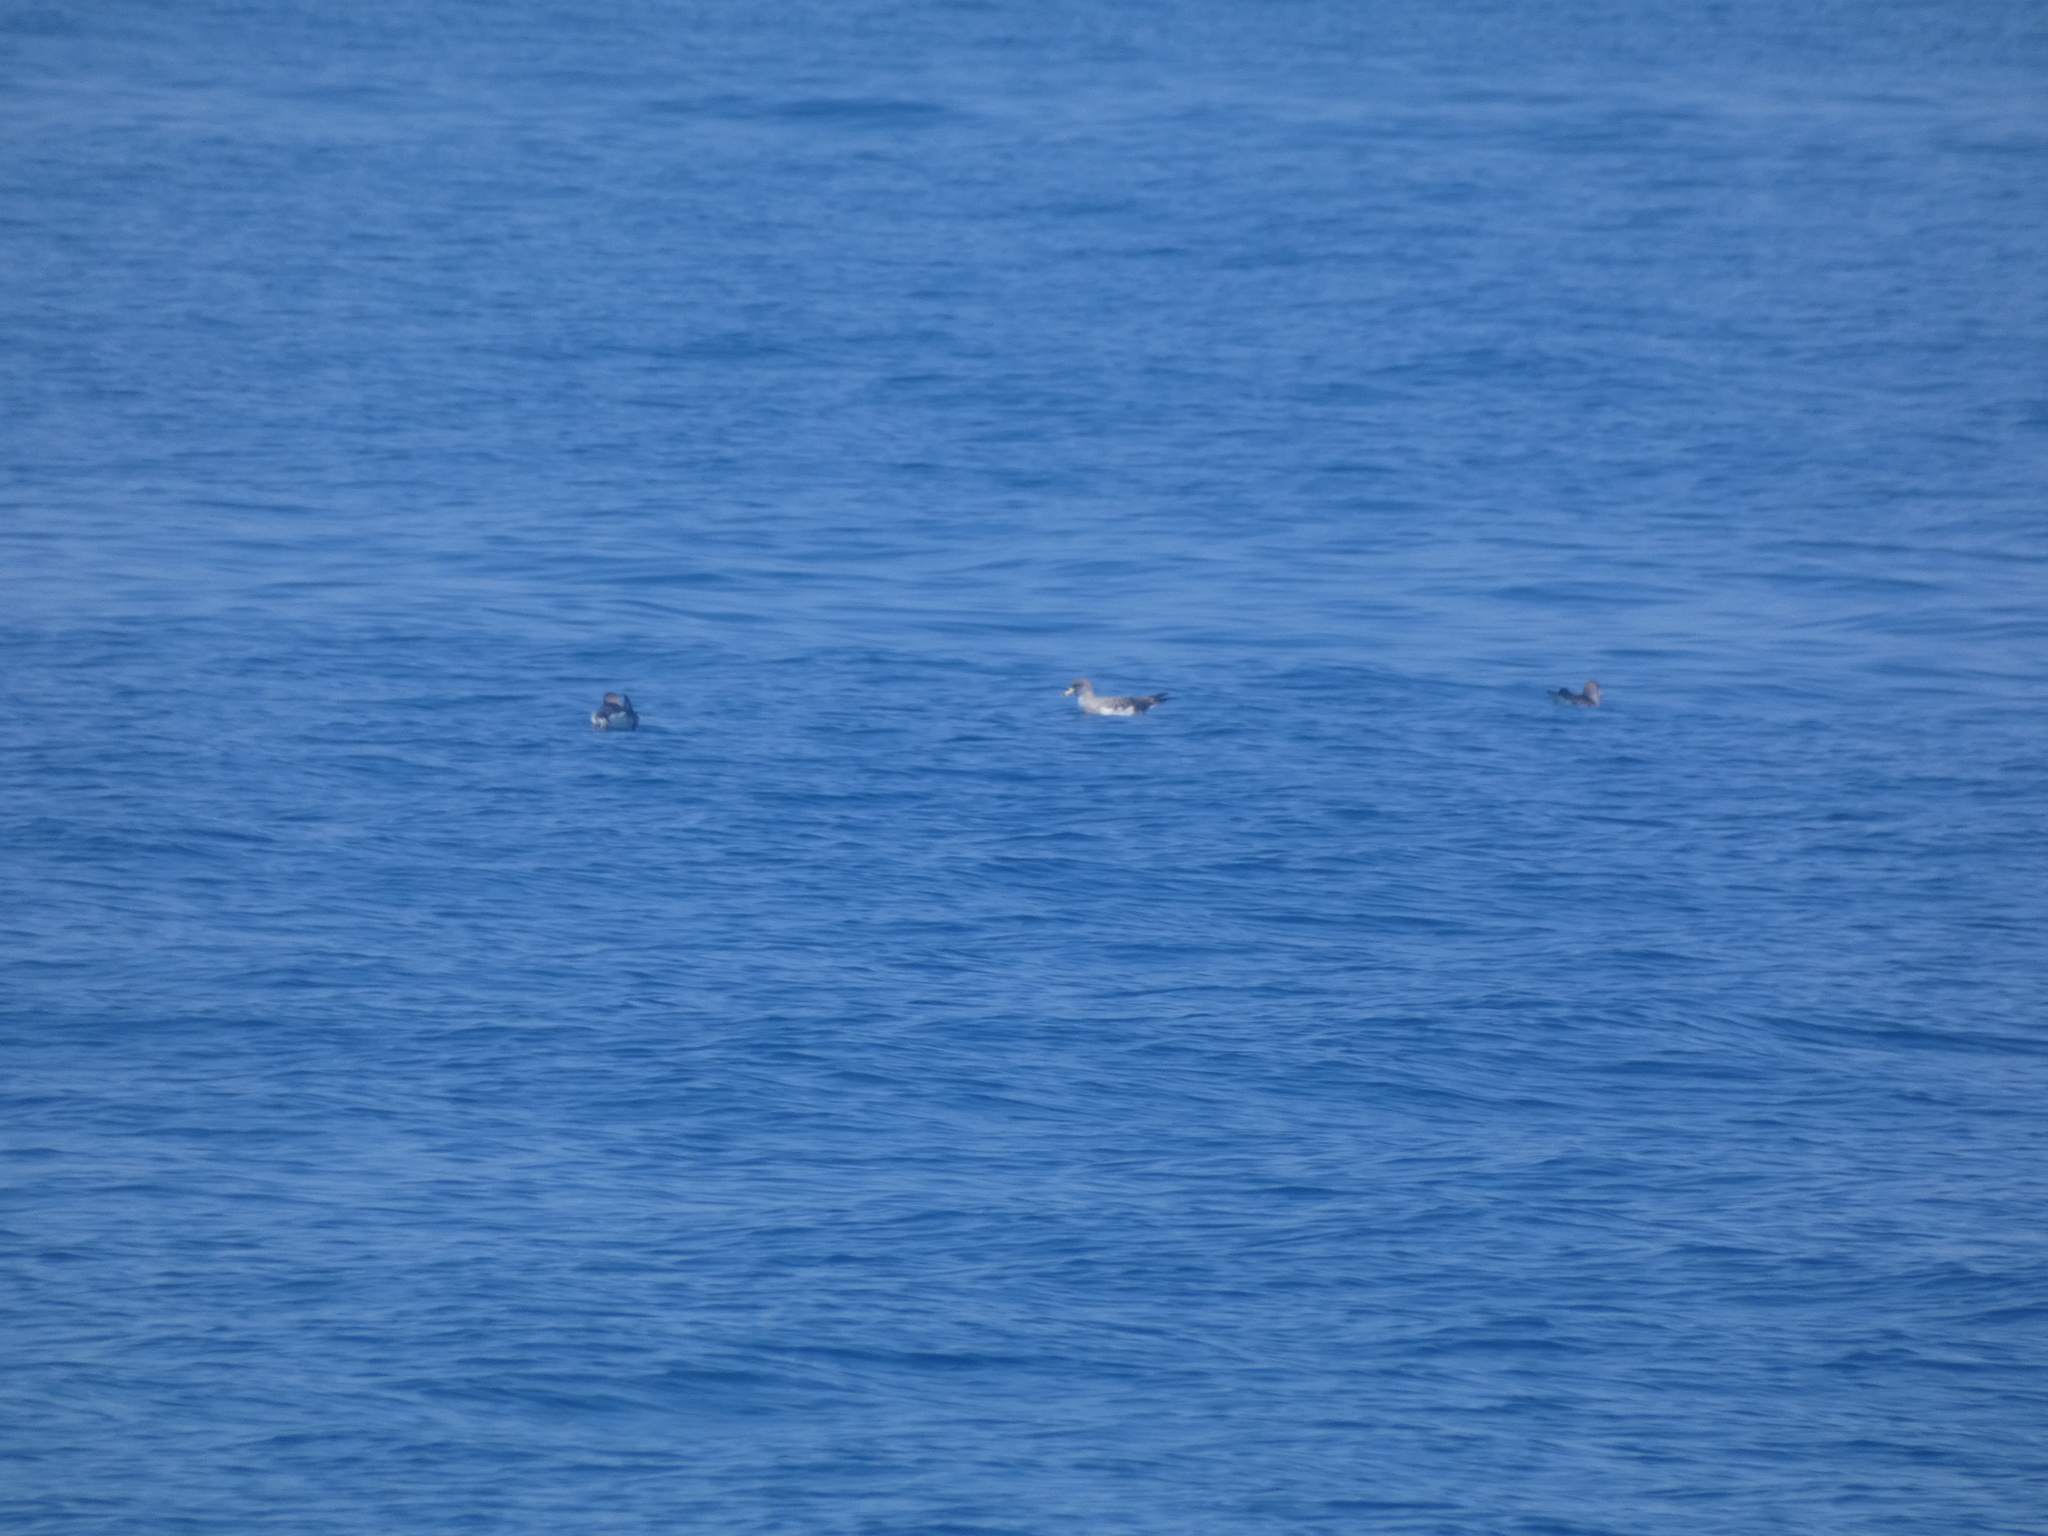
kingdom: Animalia
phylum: Chordata
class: Aves
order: Procellariiformes
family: Procellariidae
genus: Calonectris
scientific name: Calonectris diomedea
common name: Cory's shearwater
